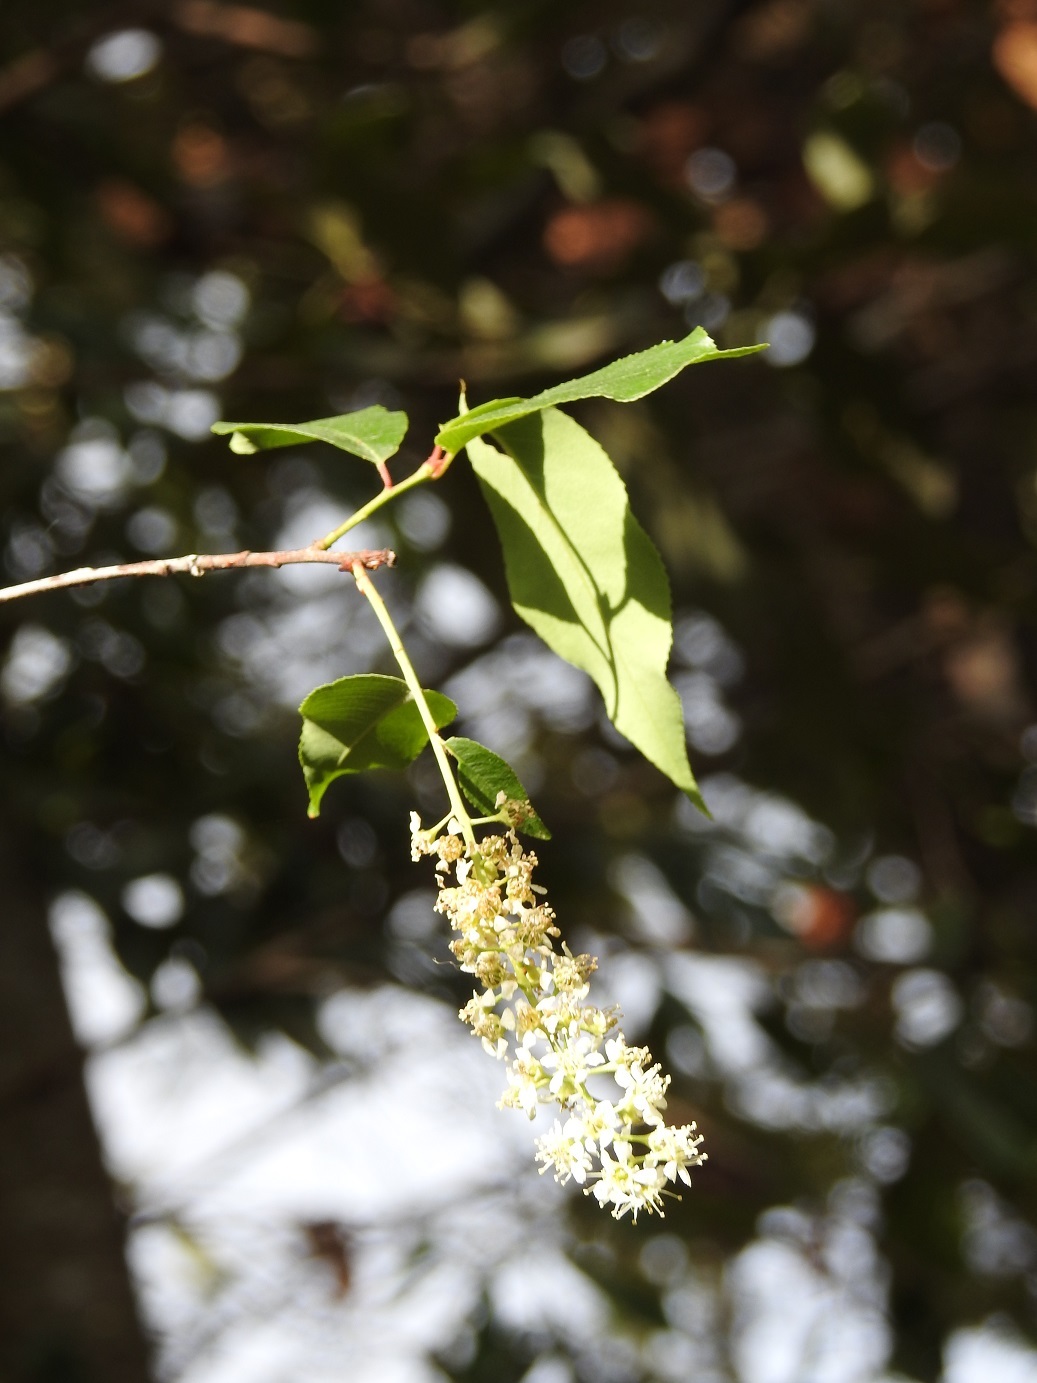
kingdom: Plantae
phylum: Tracheophyta
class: Magnoliopsida
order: Rosales
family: Rosaceae
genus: Prunus
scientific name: Prunus serotina
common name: Black cherry
